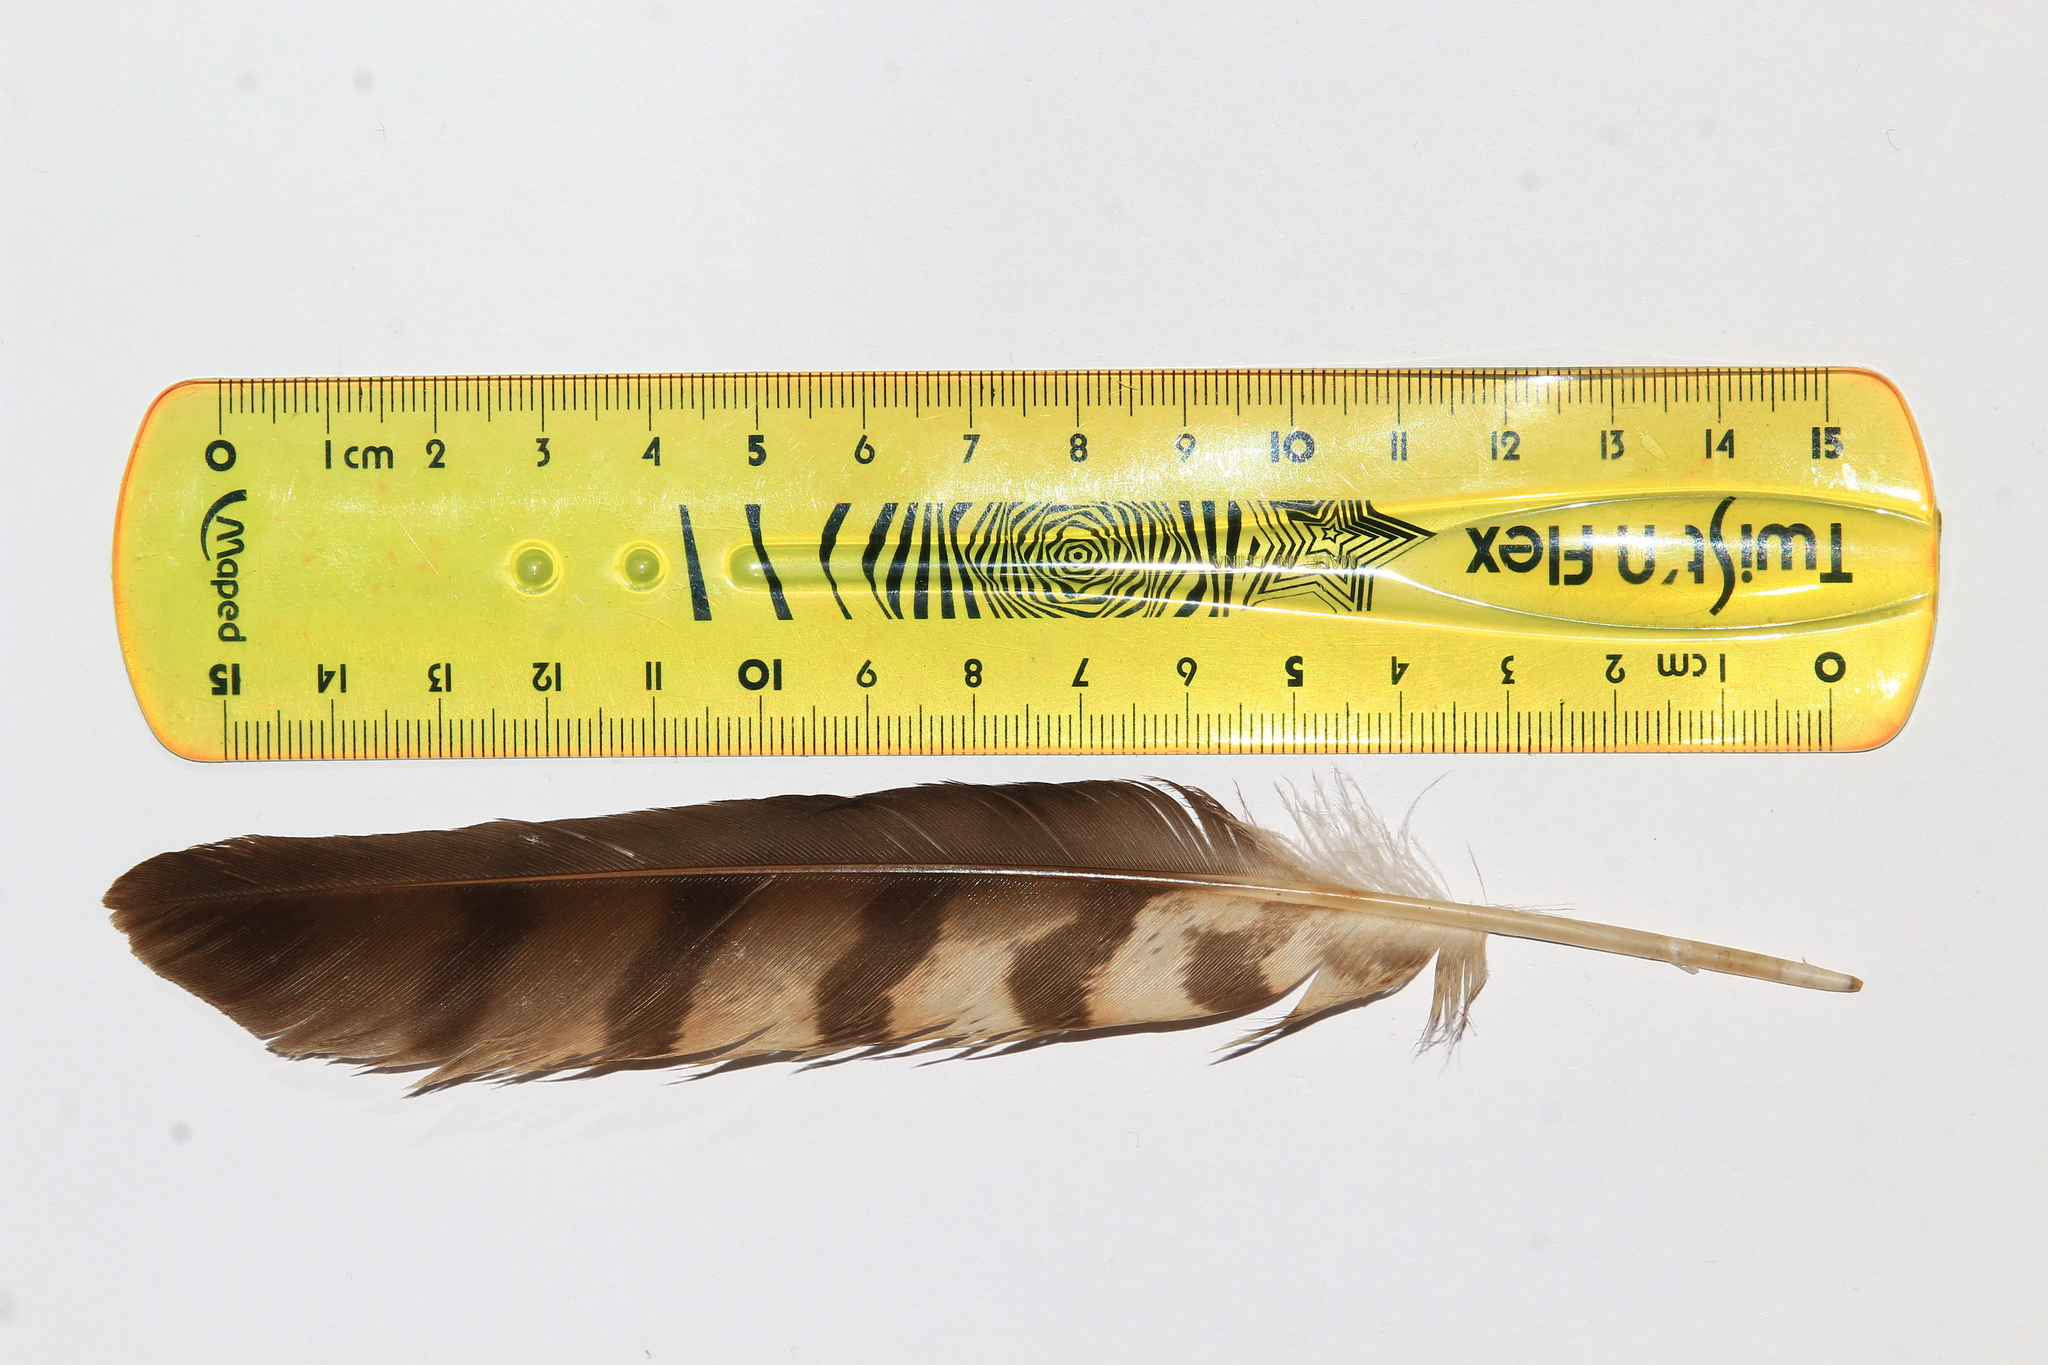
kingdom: Animalia
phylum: Chordata
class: Aves
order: Accipitriformes
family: Accipitridae
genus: Accipiter
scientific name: Accipiter nisus
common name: Eurasian sparrowhawk
